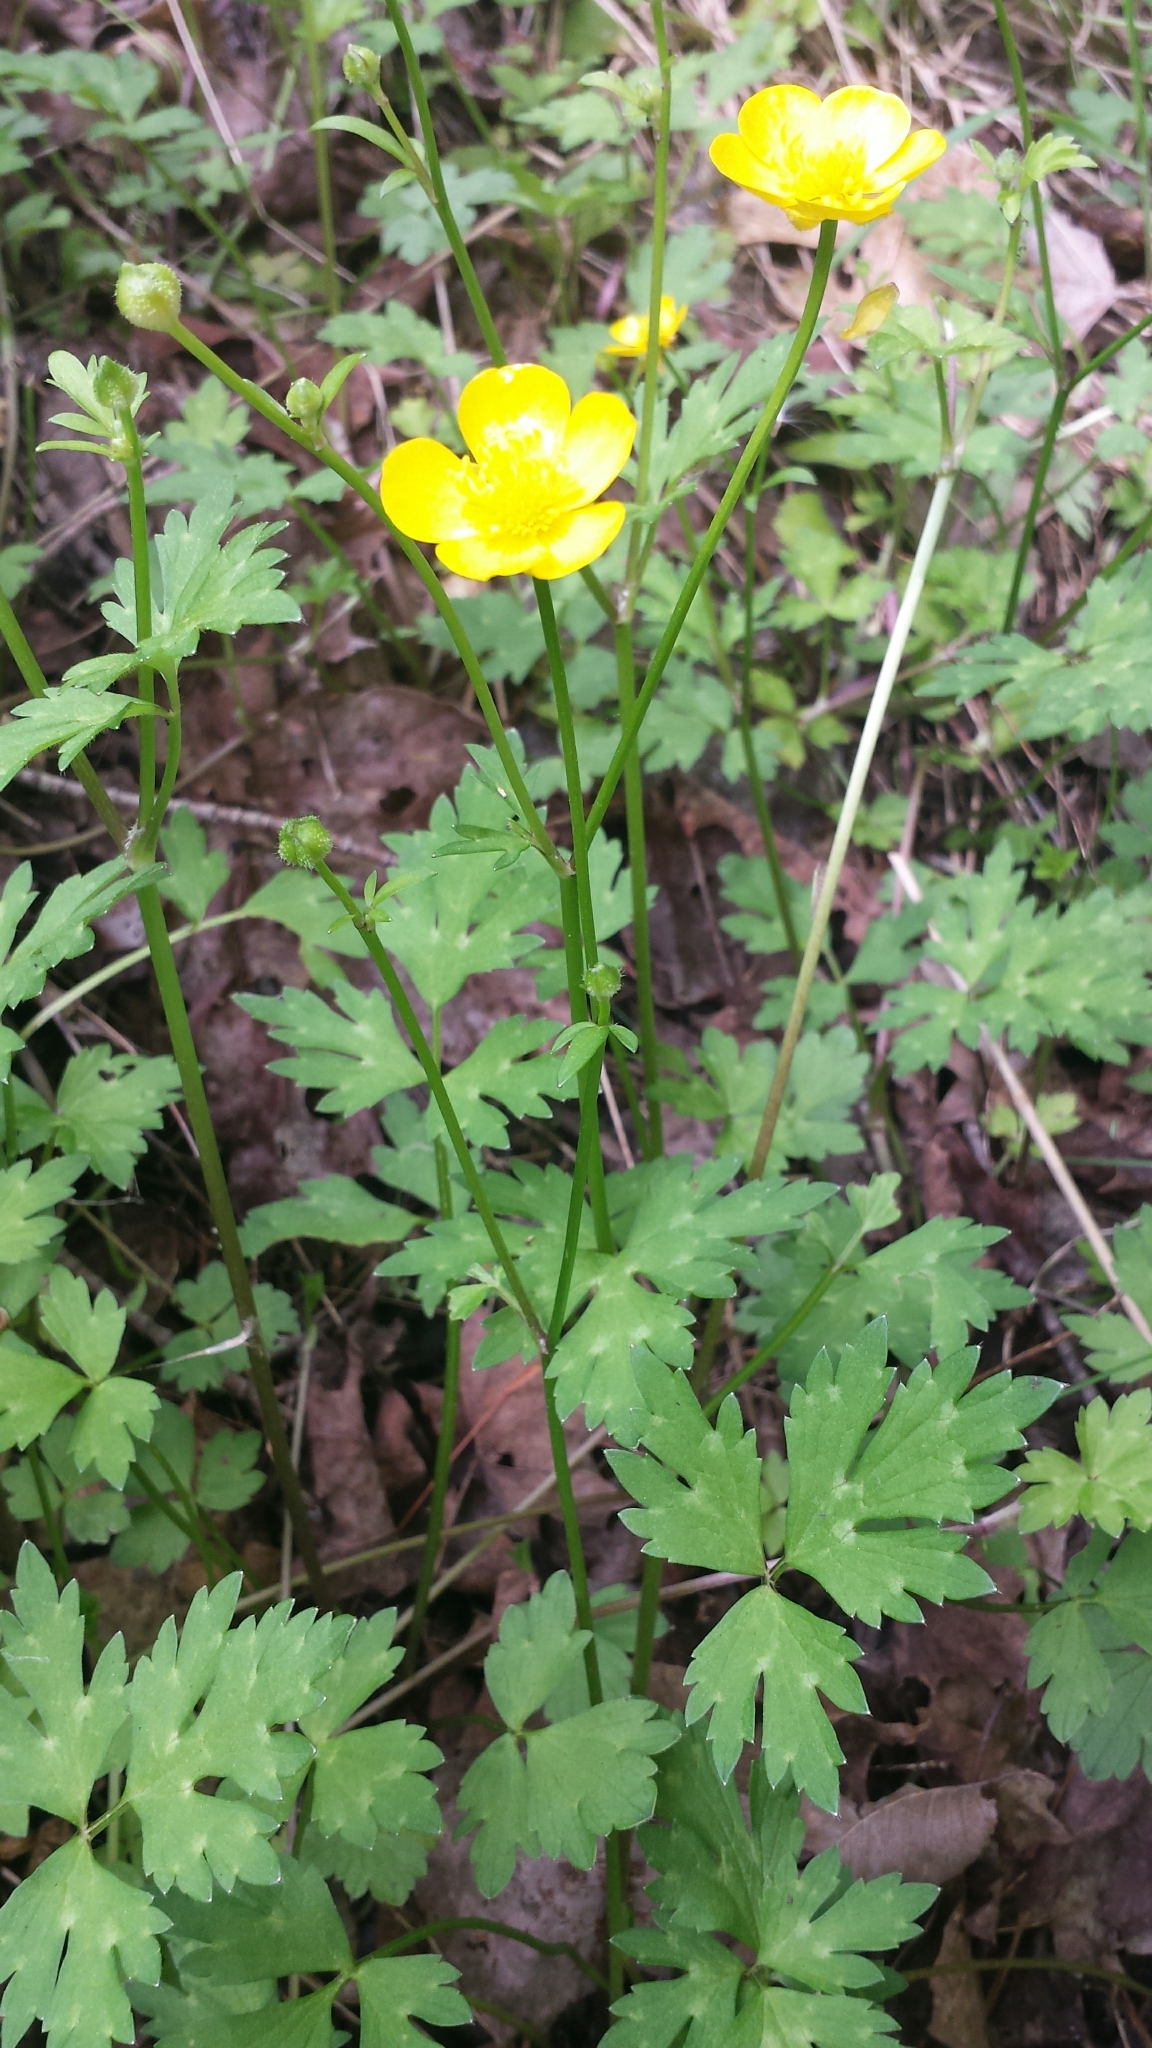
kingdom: Plantae
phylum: Tracheophyta
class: Magnoliopsida
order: Ranunculales
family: Ranunculaceae
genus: Ranunculus
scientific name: Ranunculus repens
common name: Creeping buttercup
